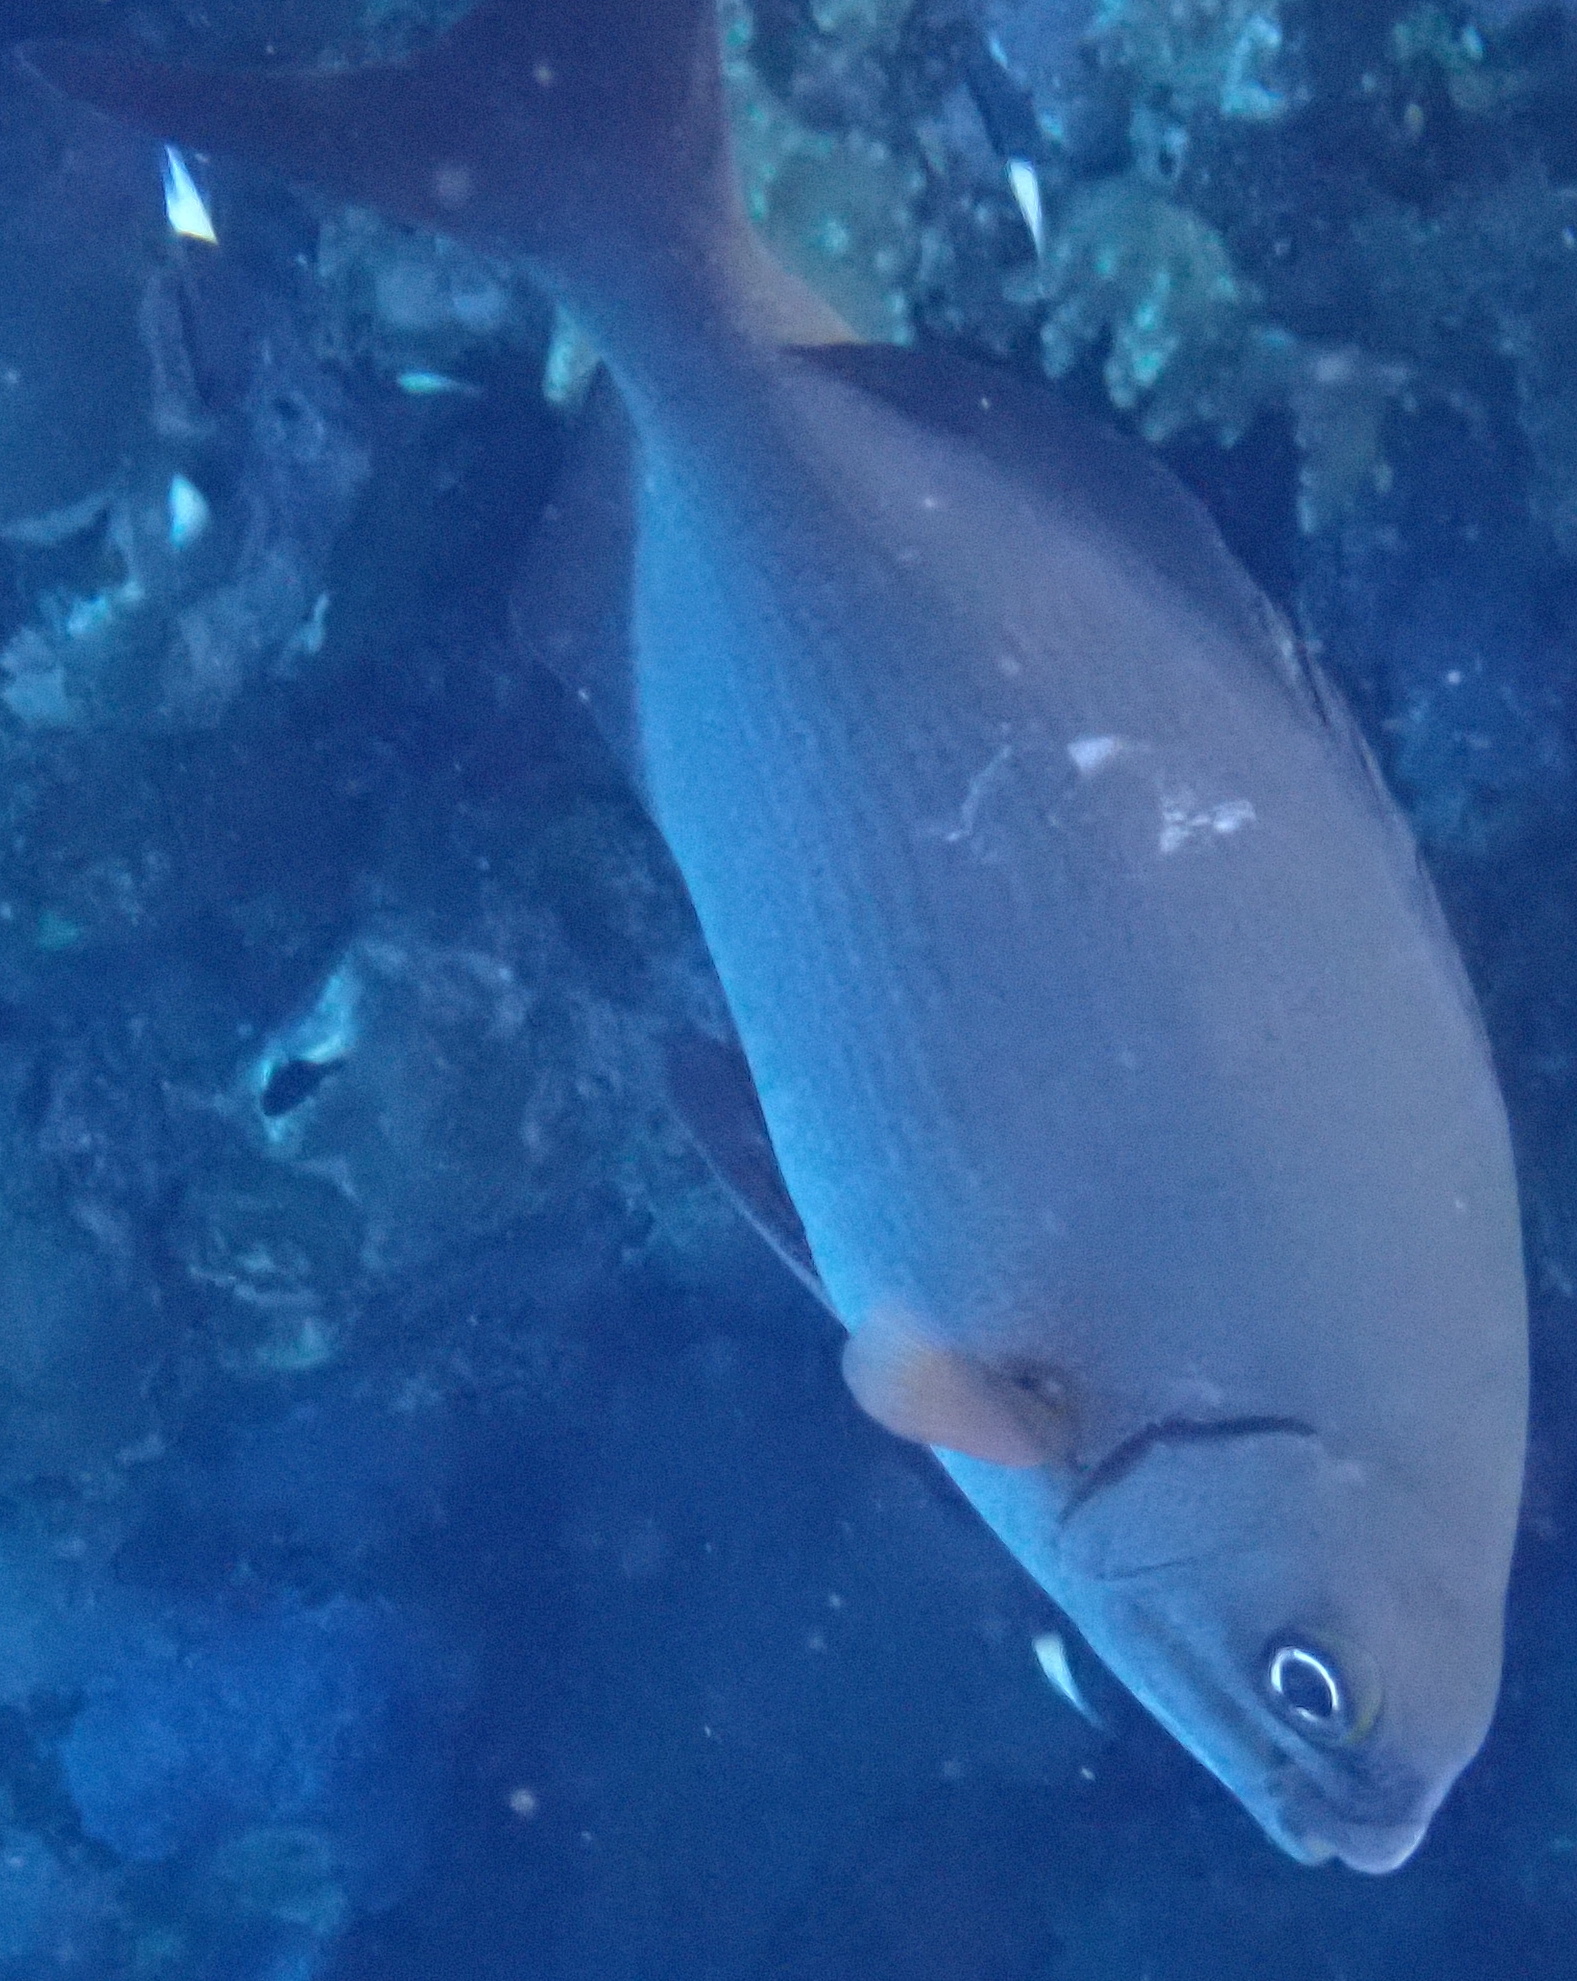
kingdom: Animalia
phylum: Chordata
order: Perciformes
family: Kyphosidae
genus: Kyphosus
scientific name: Kyphosus bigibbus
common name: Brown chub
